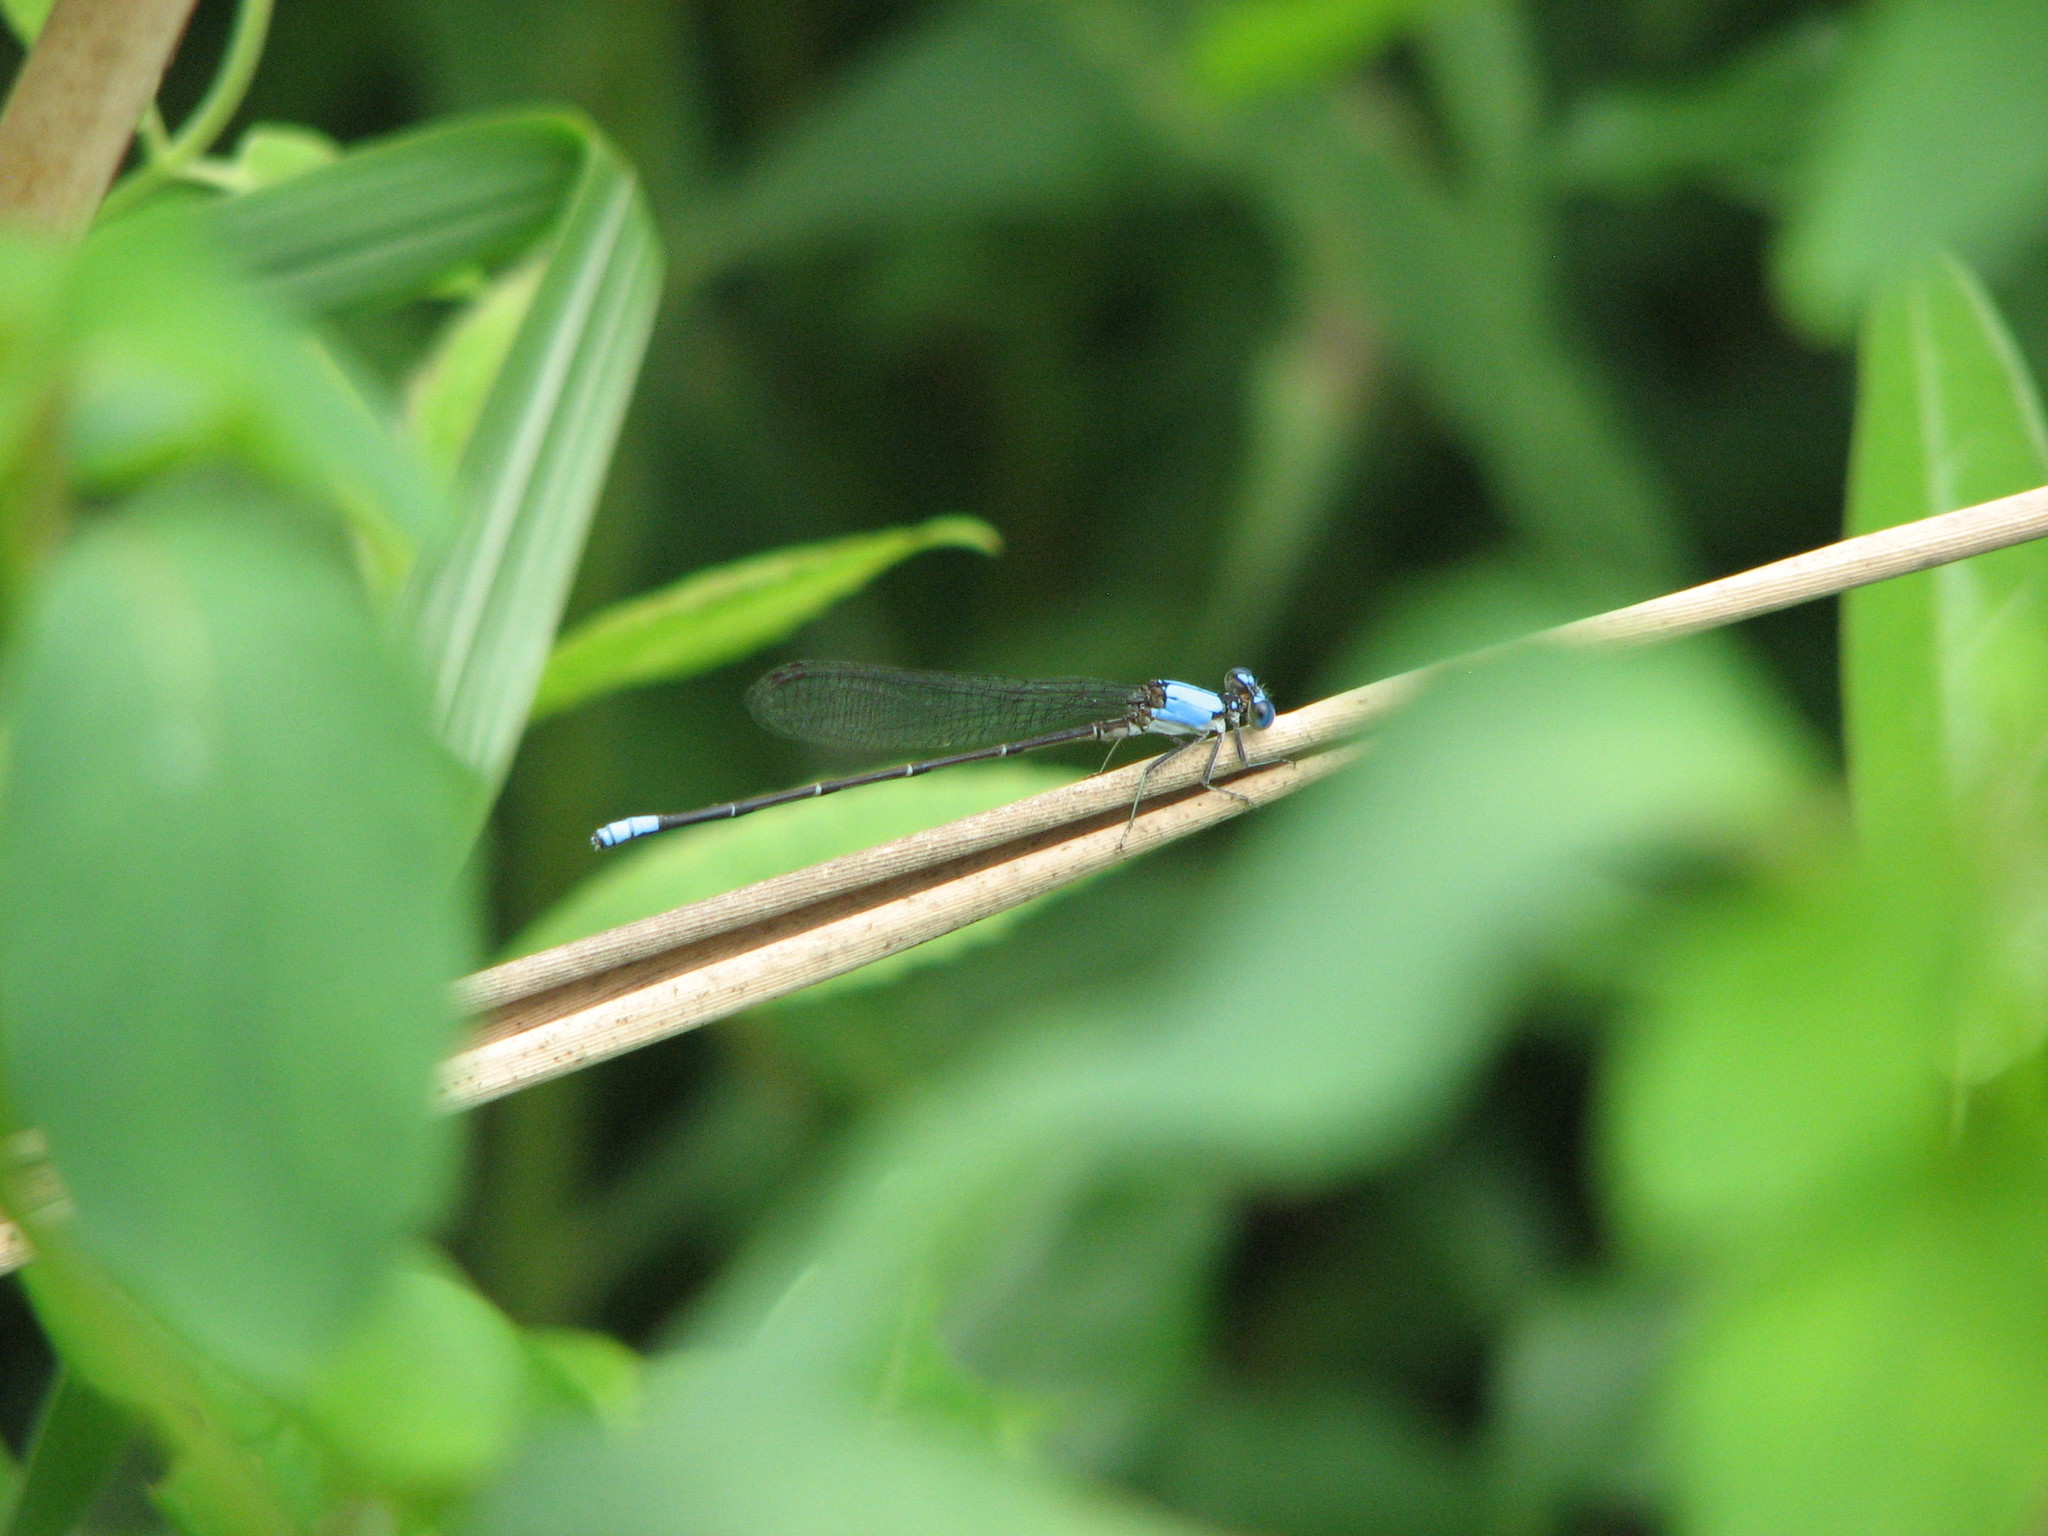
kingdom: Animalia
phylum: Arthropoda
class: Insecta
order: Odonata
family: Coenagrionidae
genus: Argia
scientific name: Argia apicalis
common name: Blue-fronted dancer
